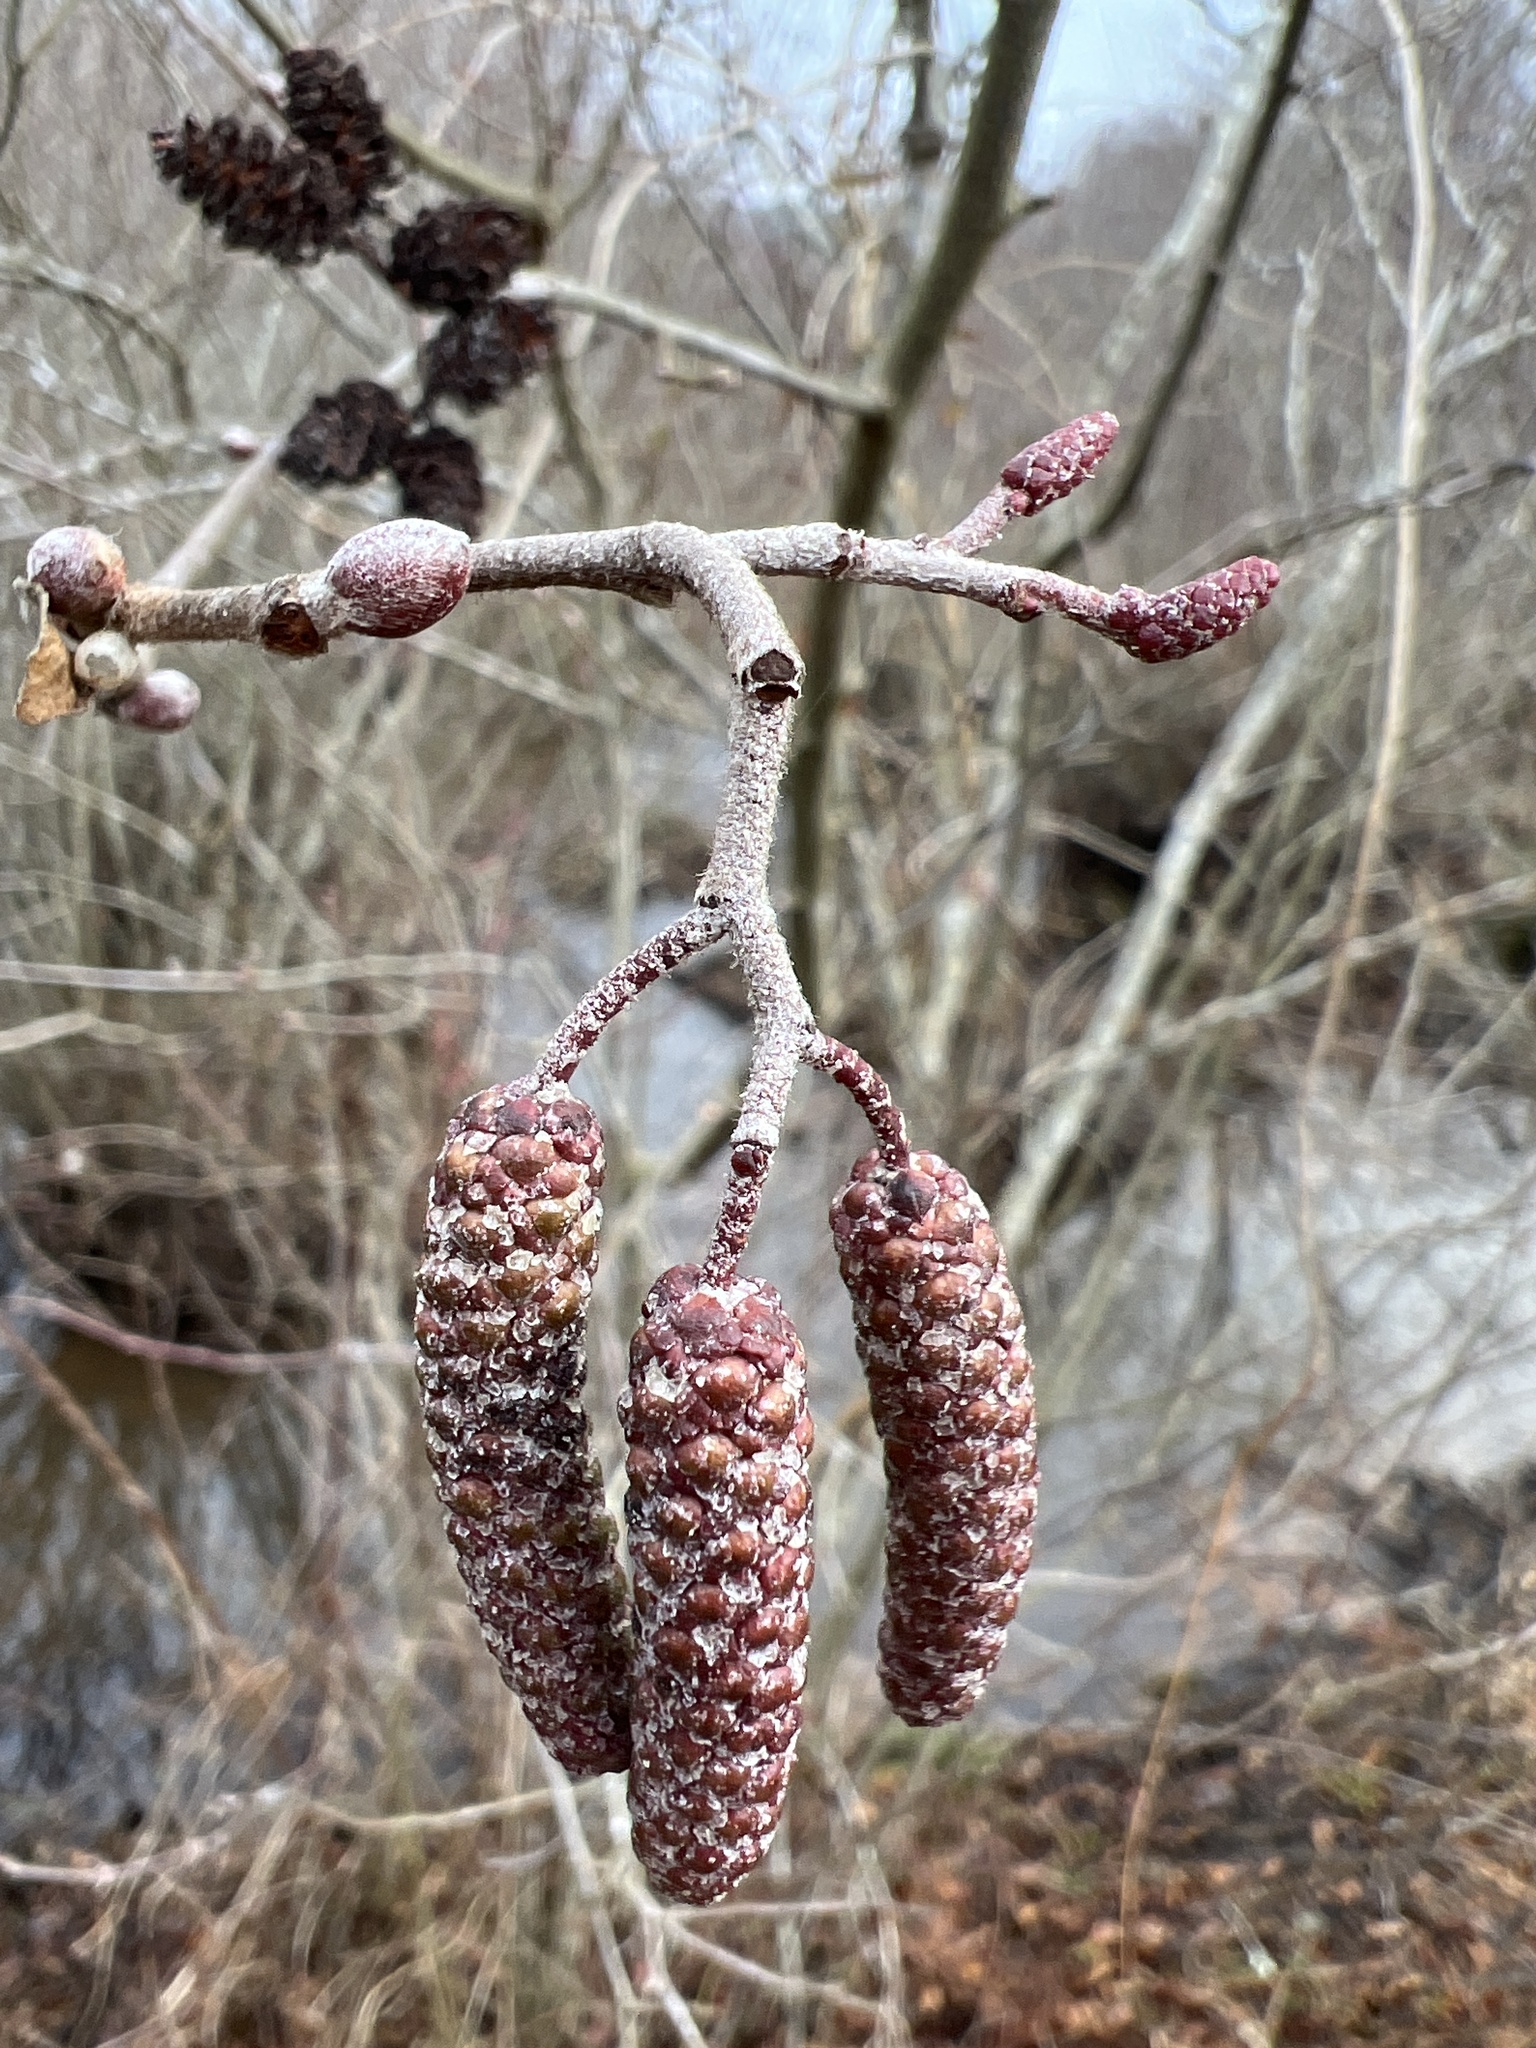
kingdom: Plantae
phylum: Tracheophyta
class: Magnoliopsida
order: Fagales
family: Betulaceae
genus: Alnus
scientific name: Alnus serrulata
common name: Hazel alder
